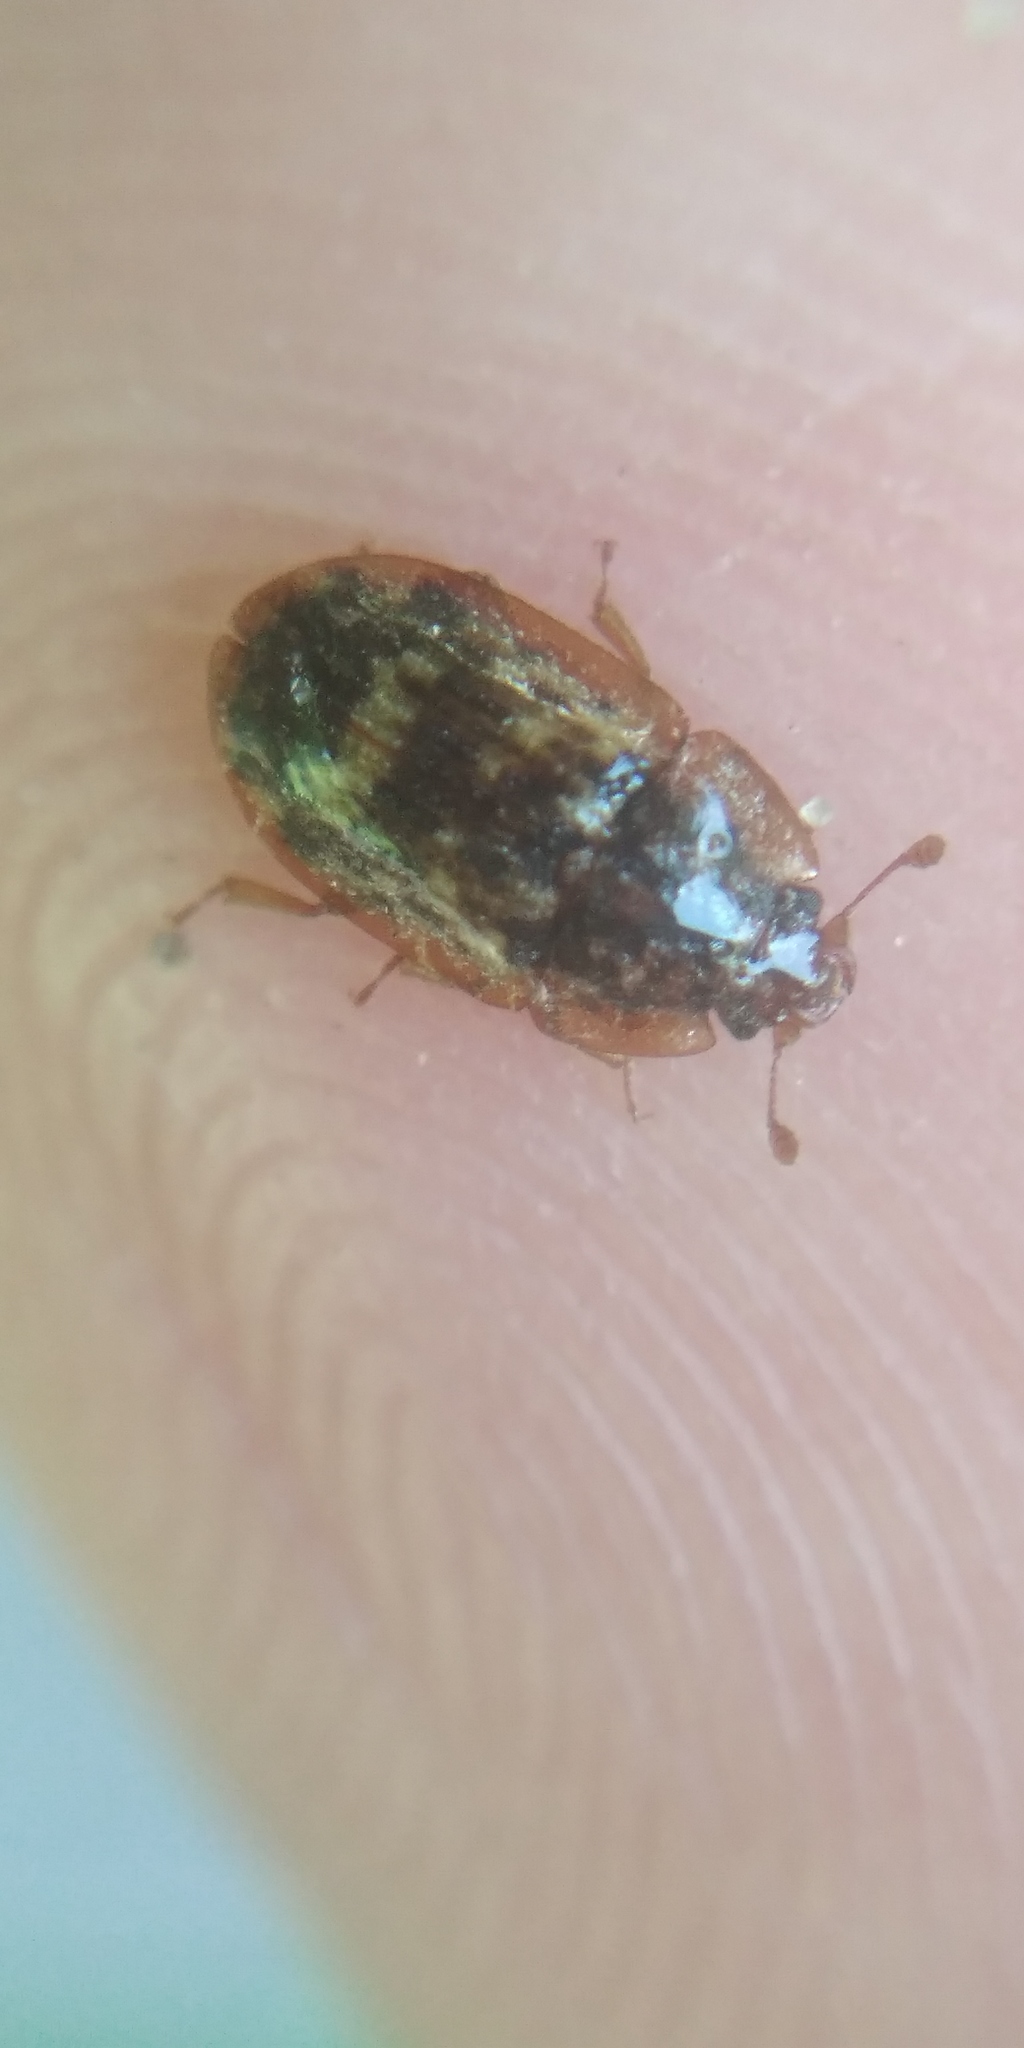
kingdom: Animalia
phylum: Arthropoda
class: Insecta
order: Coleoptera
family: Nitidulidae
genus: Soronia
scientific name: Soronia grisea
